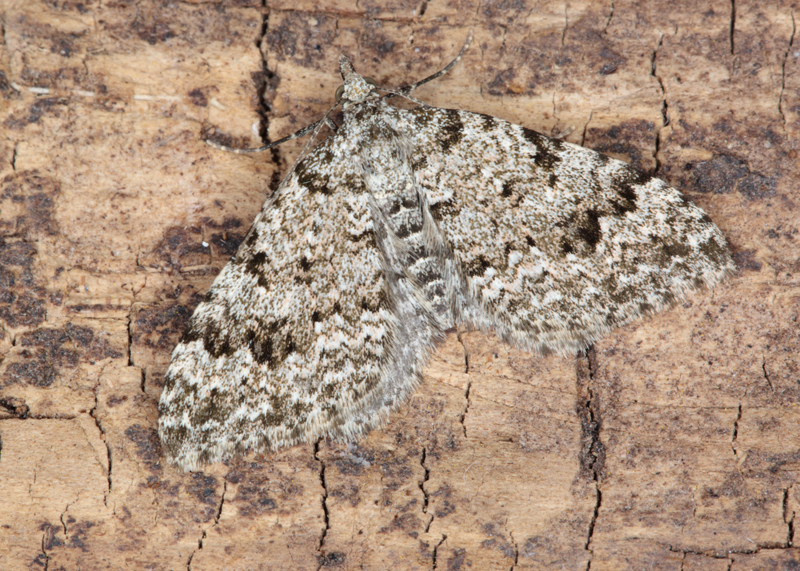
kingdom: Animalia
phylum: Arthropoda
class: Insecta
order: Lepidoptera
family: Geometridae
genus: Helastia
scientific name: Helastia cinerearia
